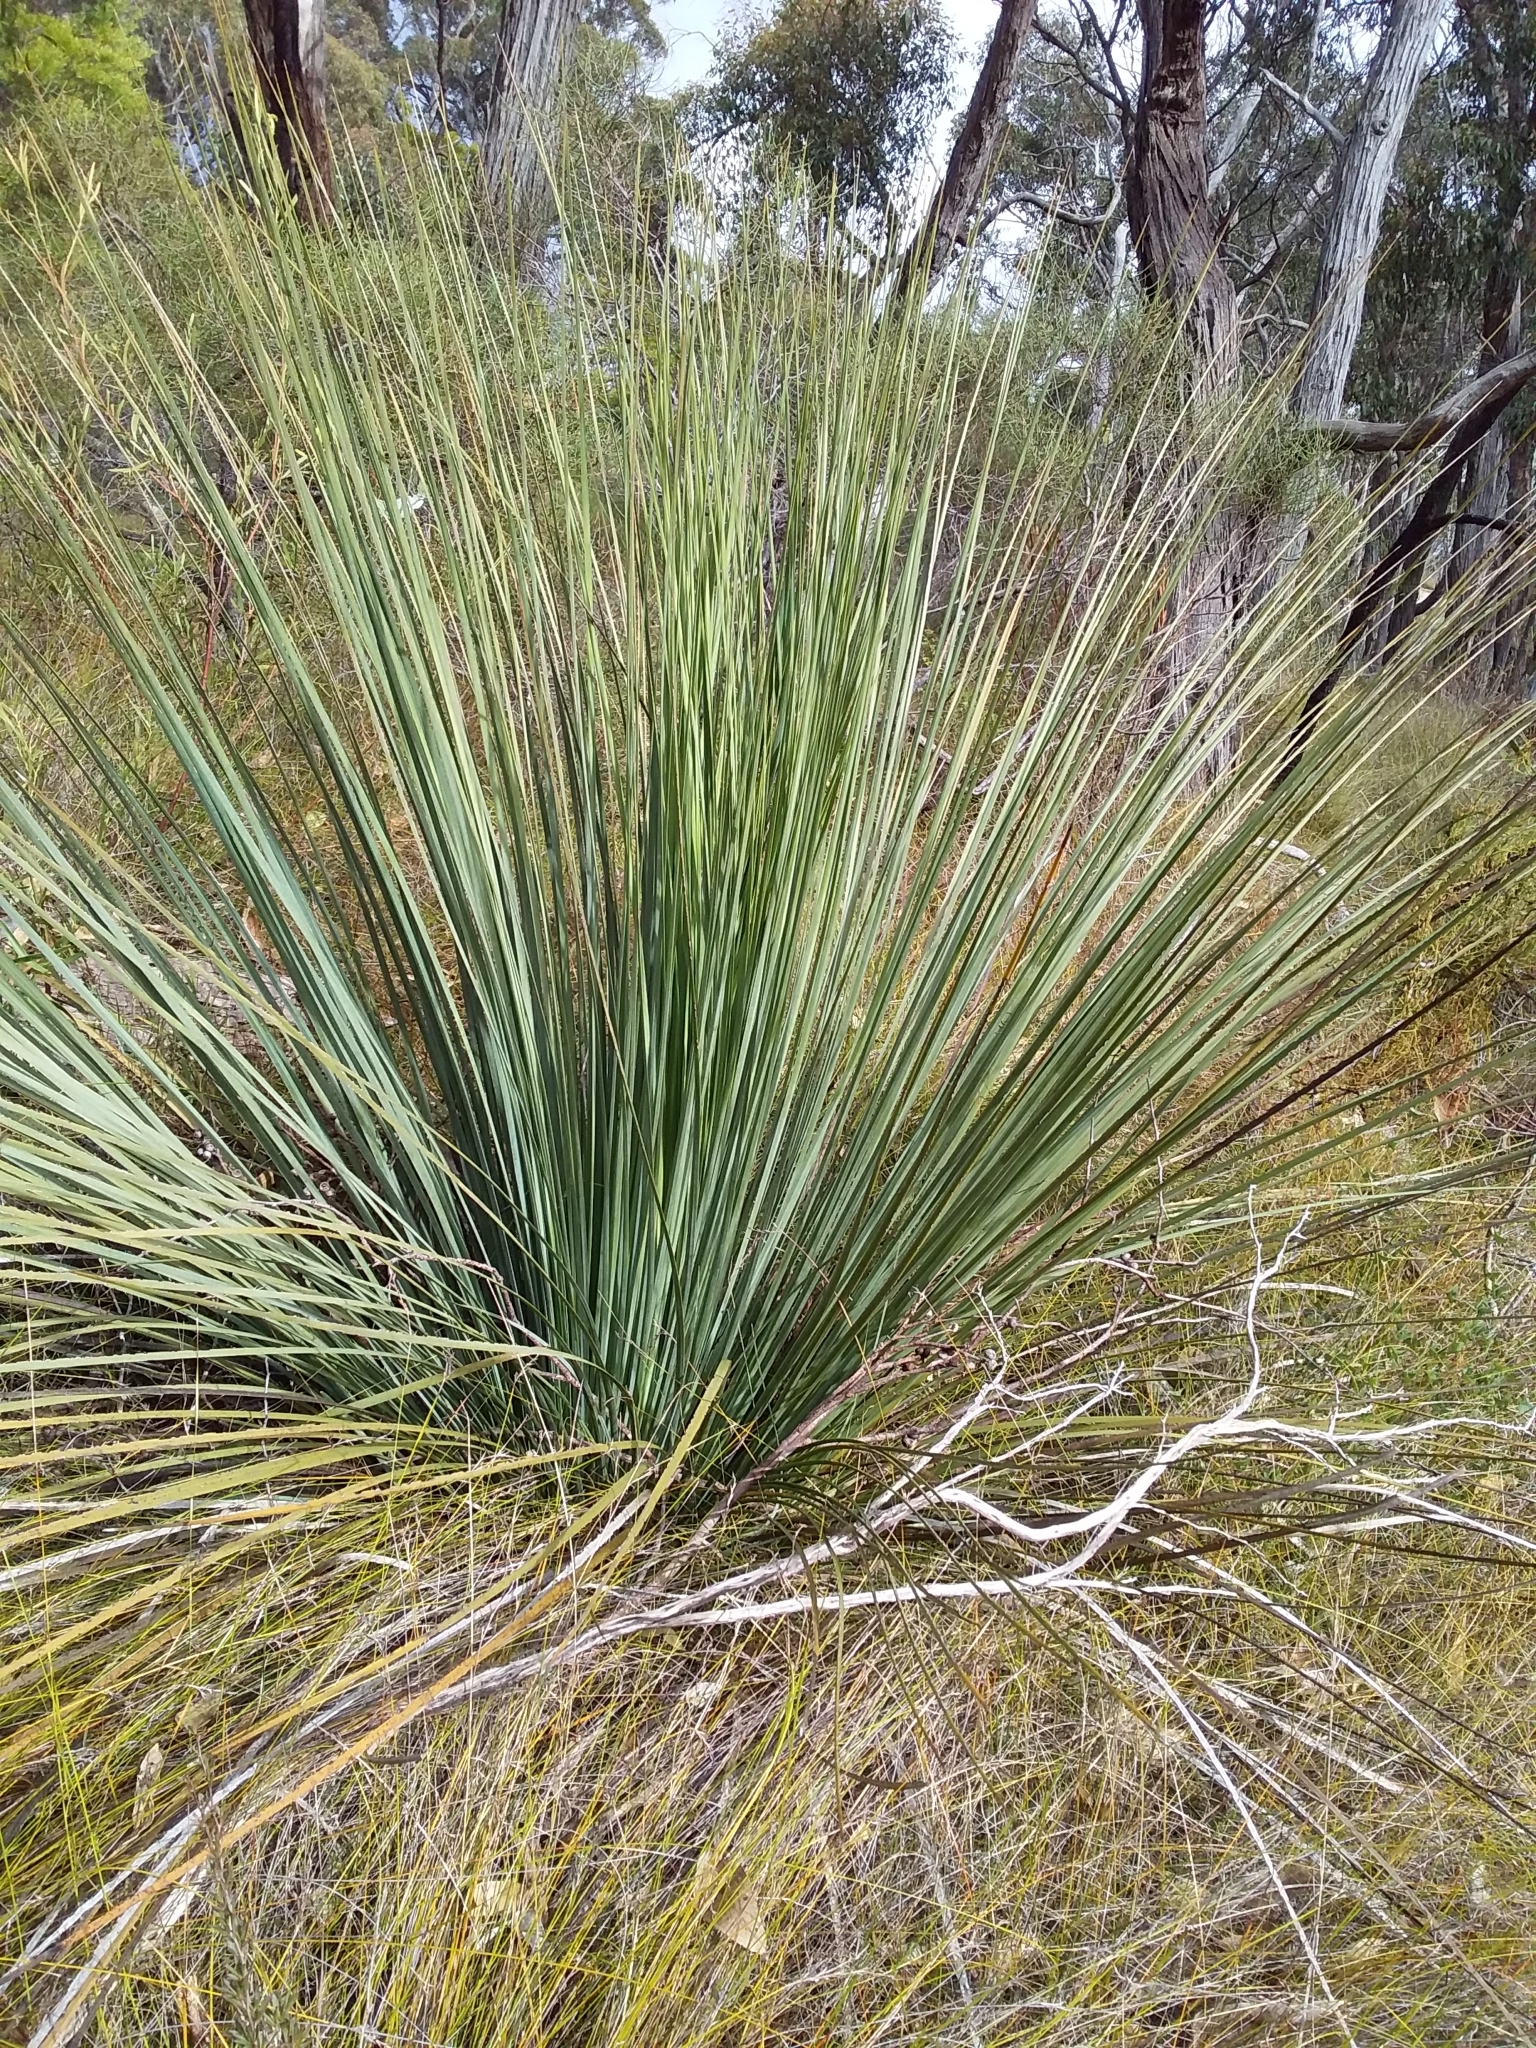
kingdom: Plantae
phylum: Tracheophyta
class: Liliopsida
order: Asparagales
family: Asphodelaceae
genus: Xanthorrhoea
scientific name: Xanthorrhoea semiplana
